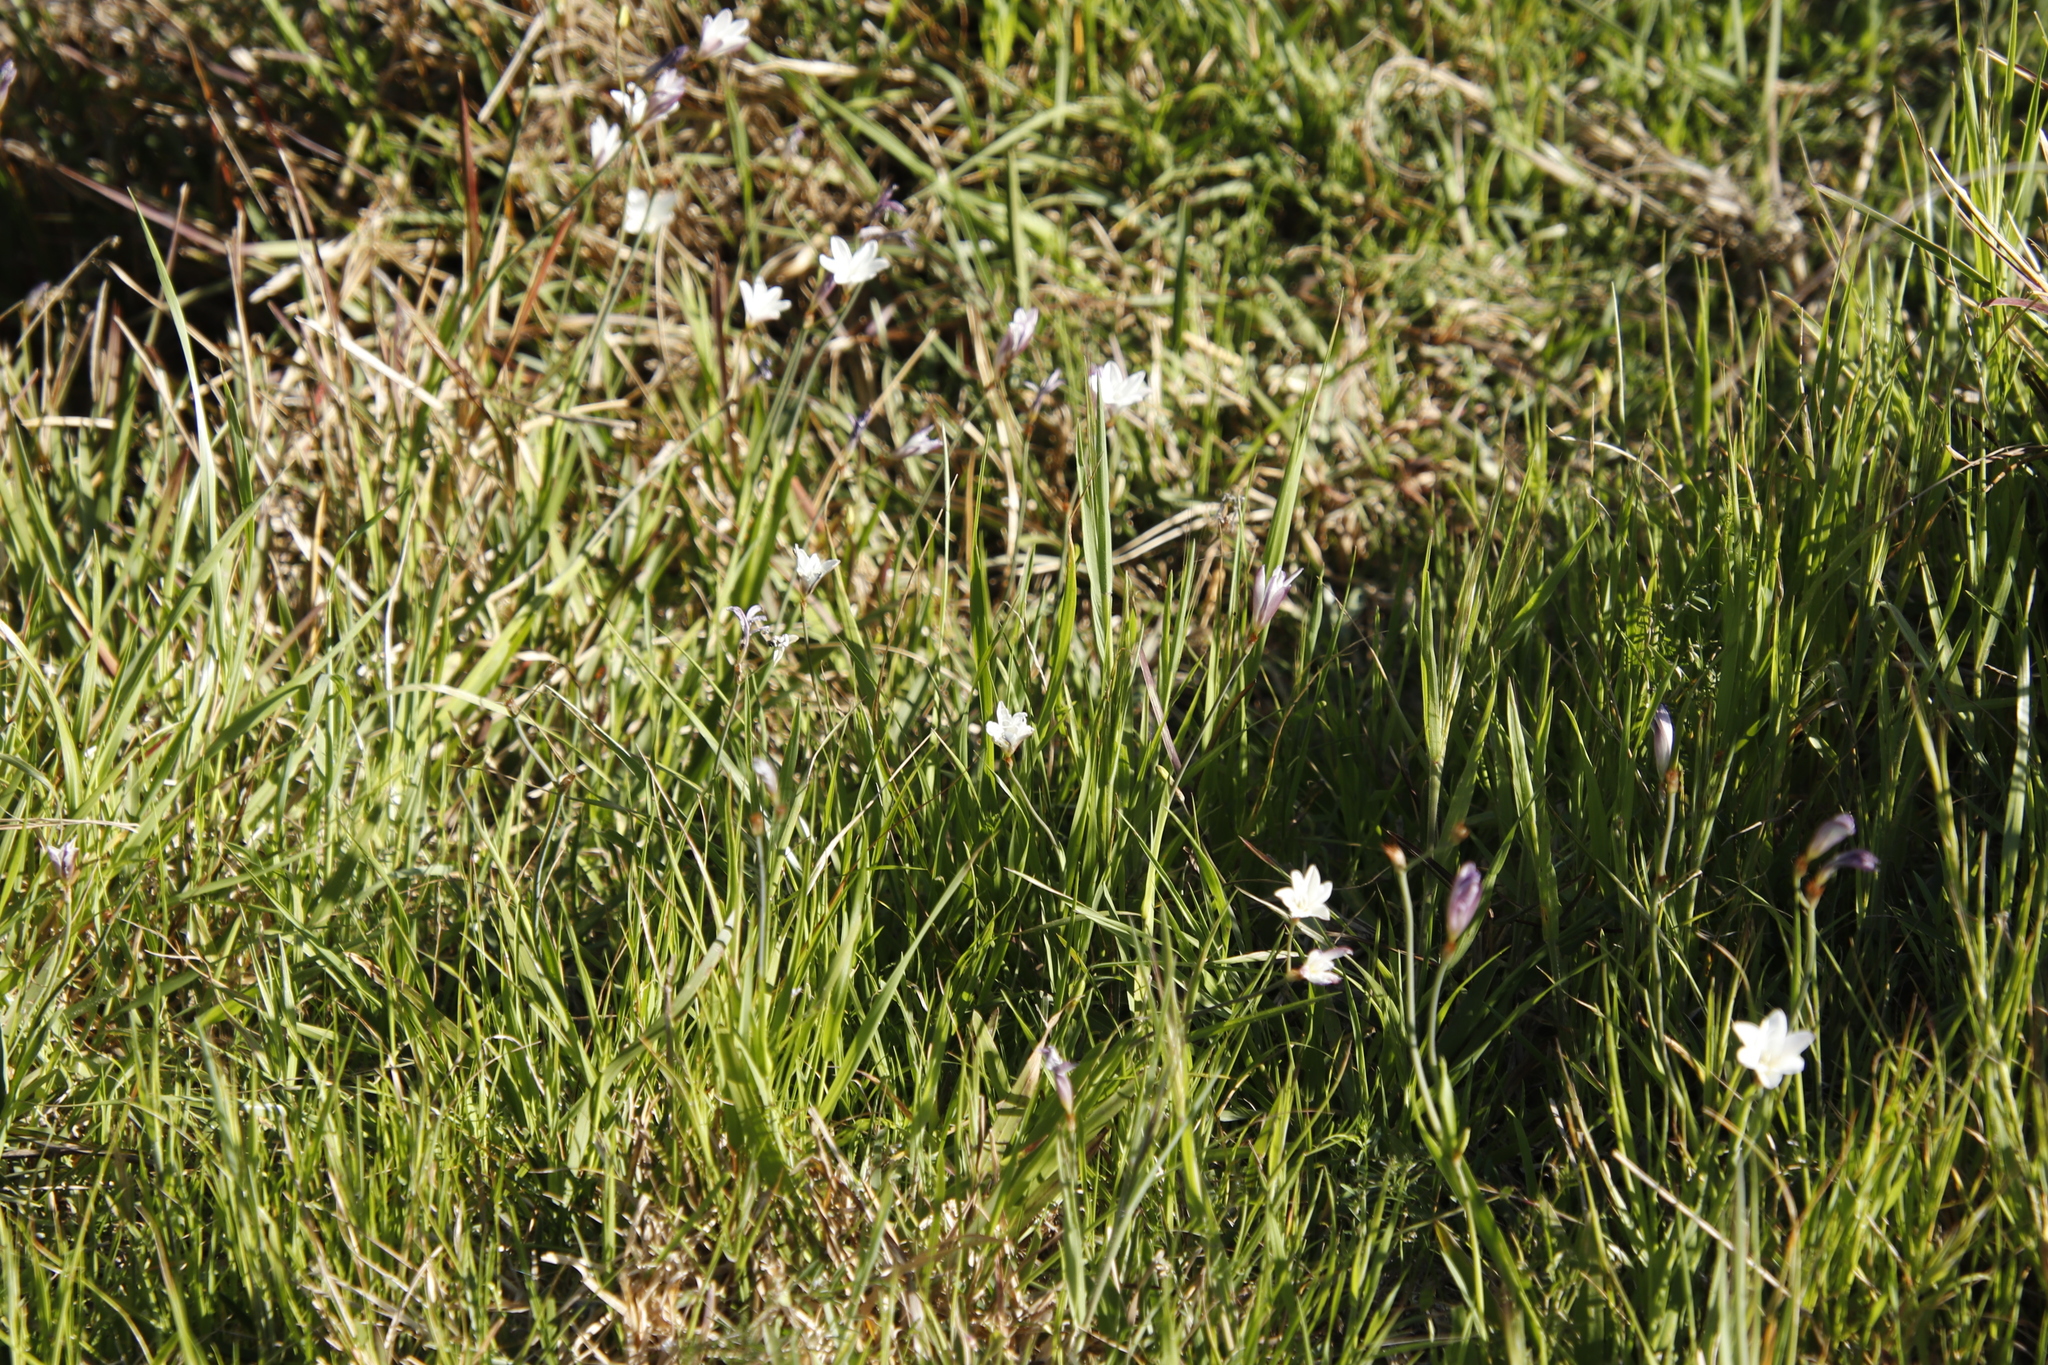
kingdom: Plantae
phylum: Tracheophyta
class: Liliopsida
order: Asparagales
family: Iridaceae
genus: Sparaxis
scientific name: Sparaxis bulbifera
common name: Harlequin-flower
